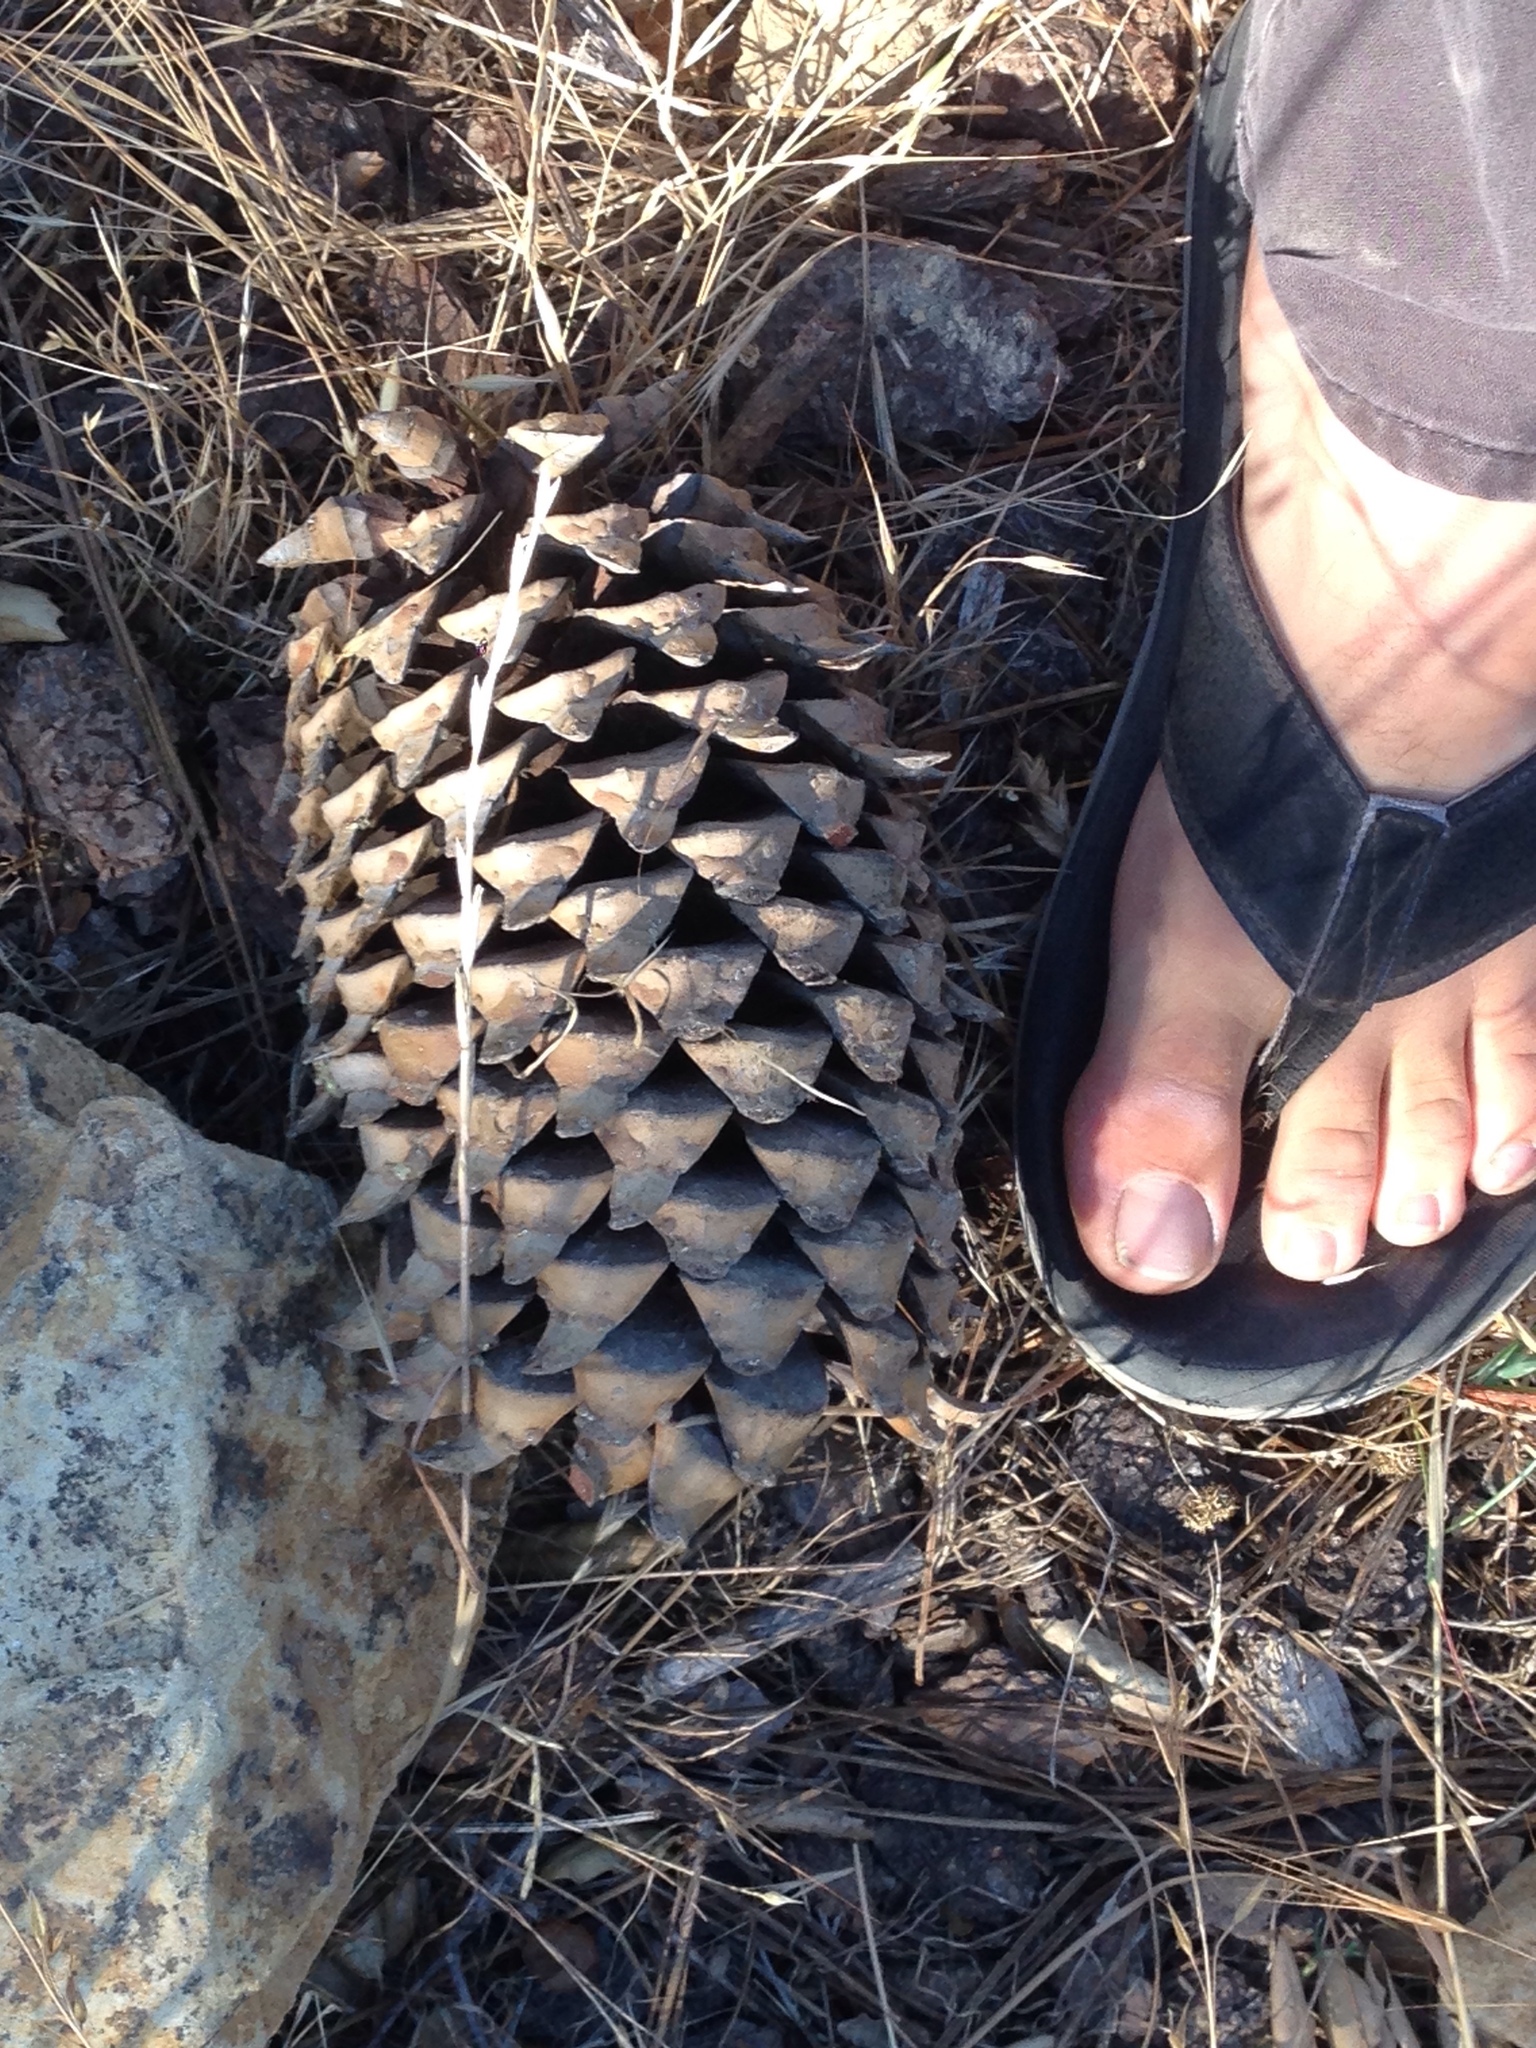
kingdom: Plantae
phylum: Tracheophyta
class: Pinopsida
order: Pinales
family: Pinaceae
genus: Pinus
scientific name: Pinus coulteri
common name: Coulter pine
